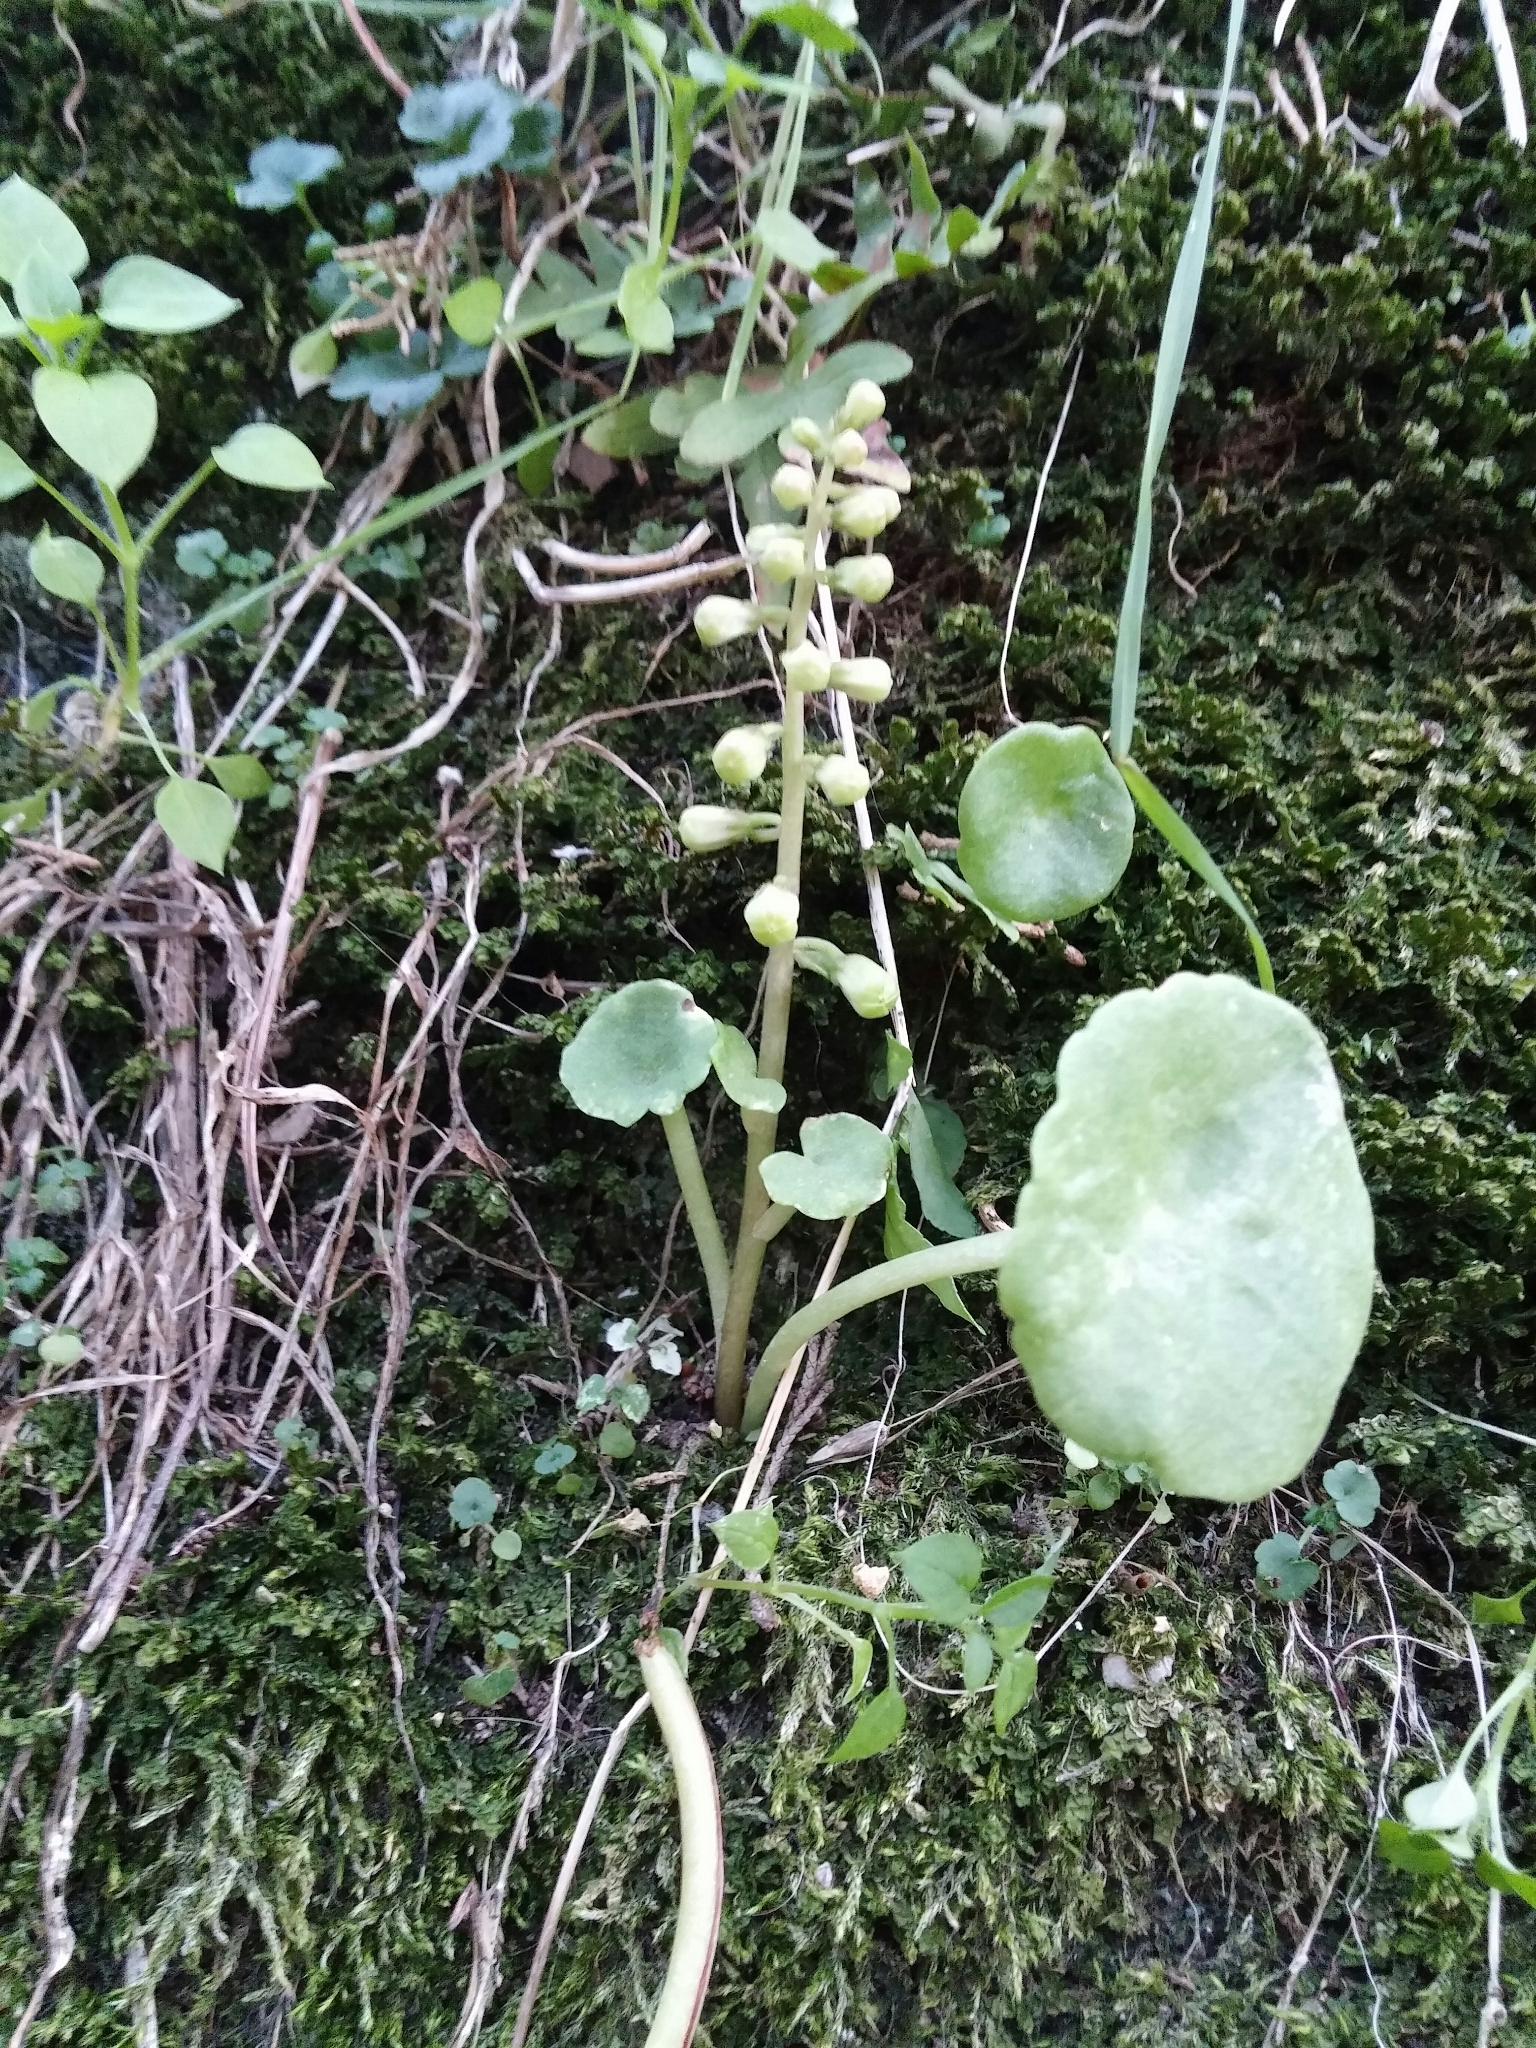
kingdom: Plantae
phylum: Tracheophyta
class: Magnoliopsida
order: Saxifragales
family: Crassulaceae
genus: Umbilicus
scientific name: Umbilicus rupestris
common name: Navelwort
